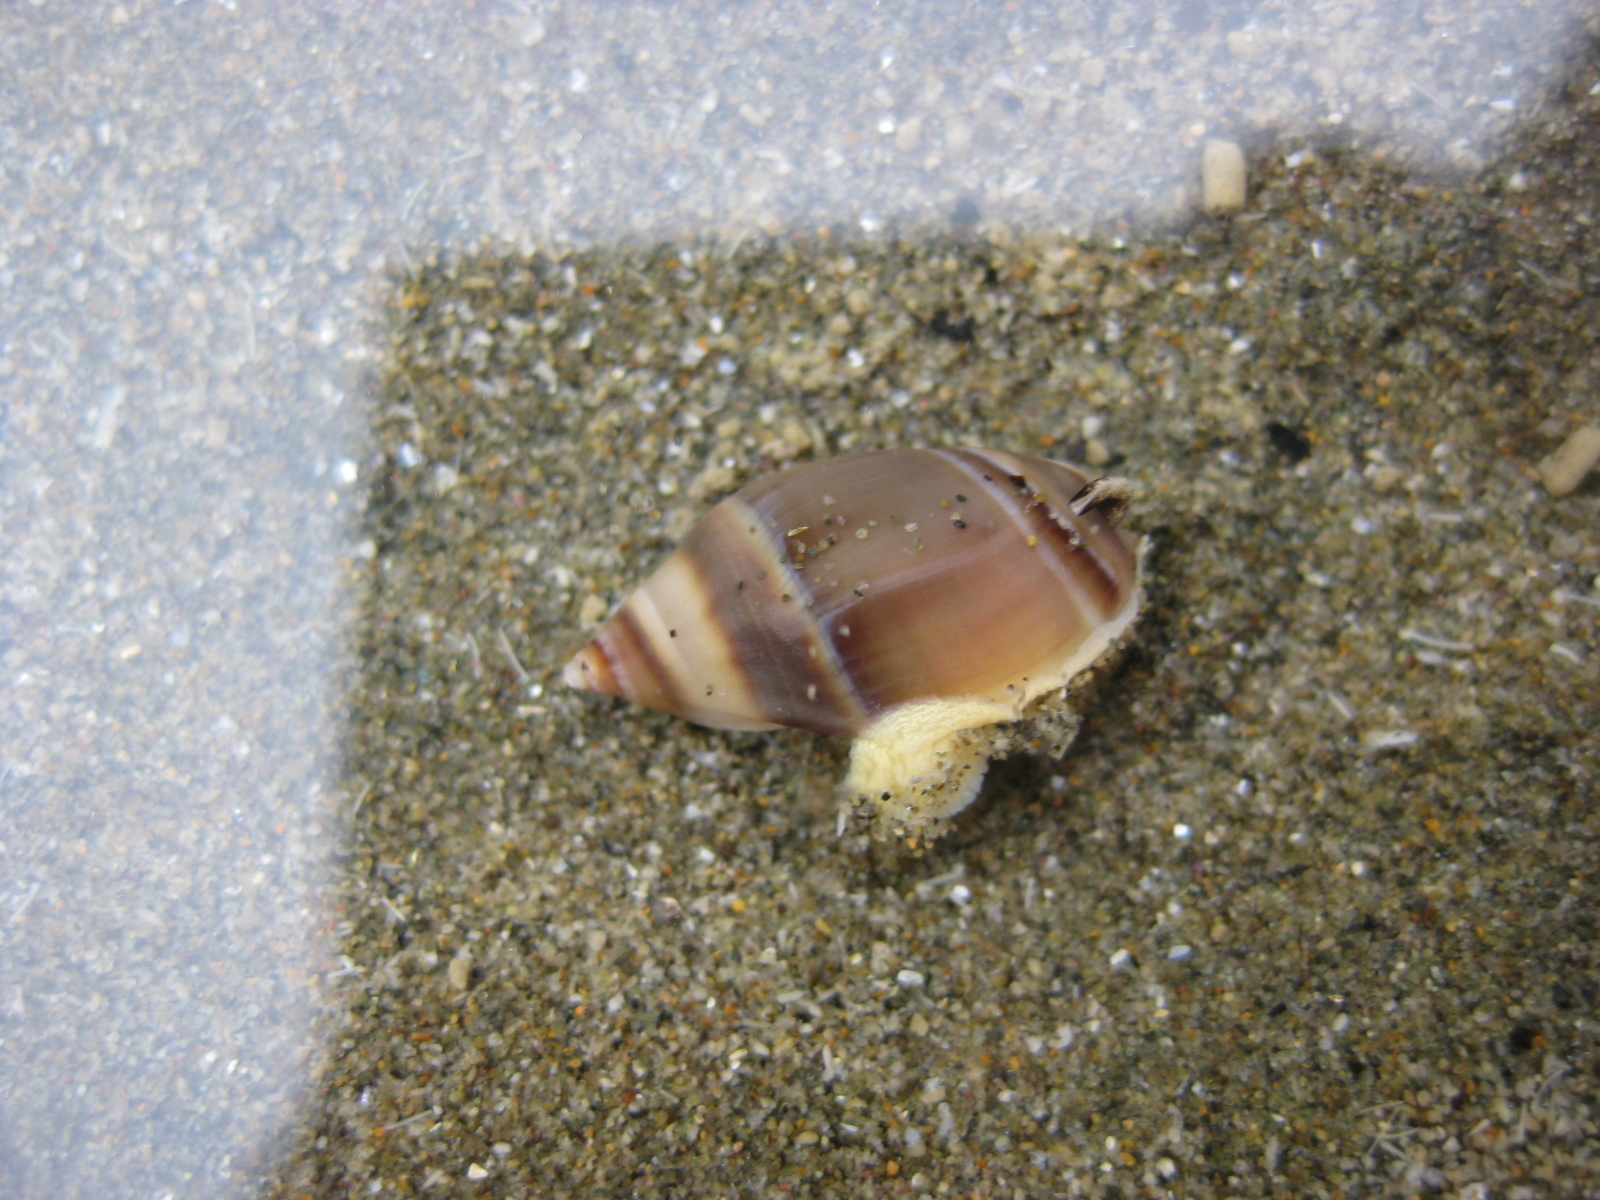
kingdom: Animalia
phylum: Mollusca
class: Gastropoda
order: Neogastropoda
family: Ancillariidae
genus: Amalda
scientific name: Amalda australis
